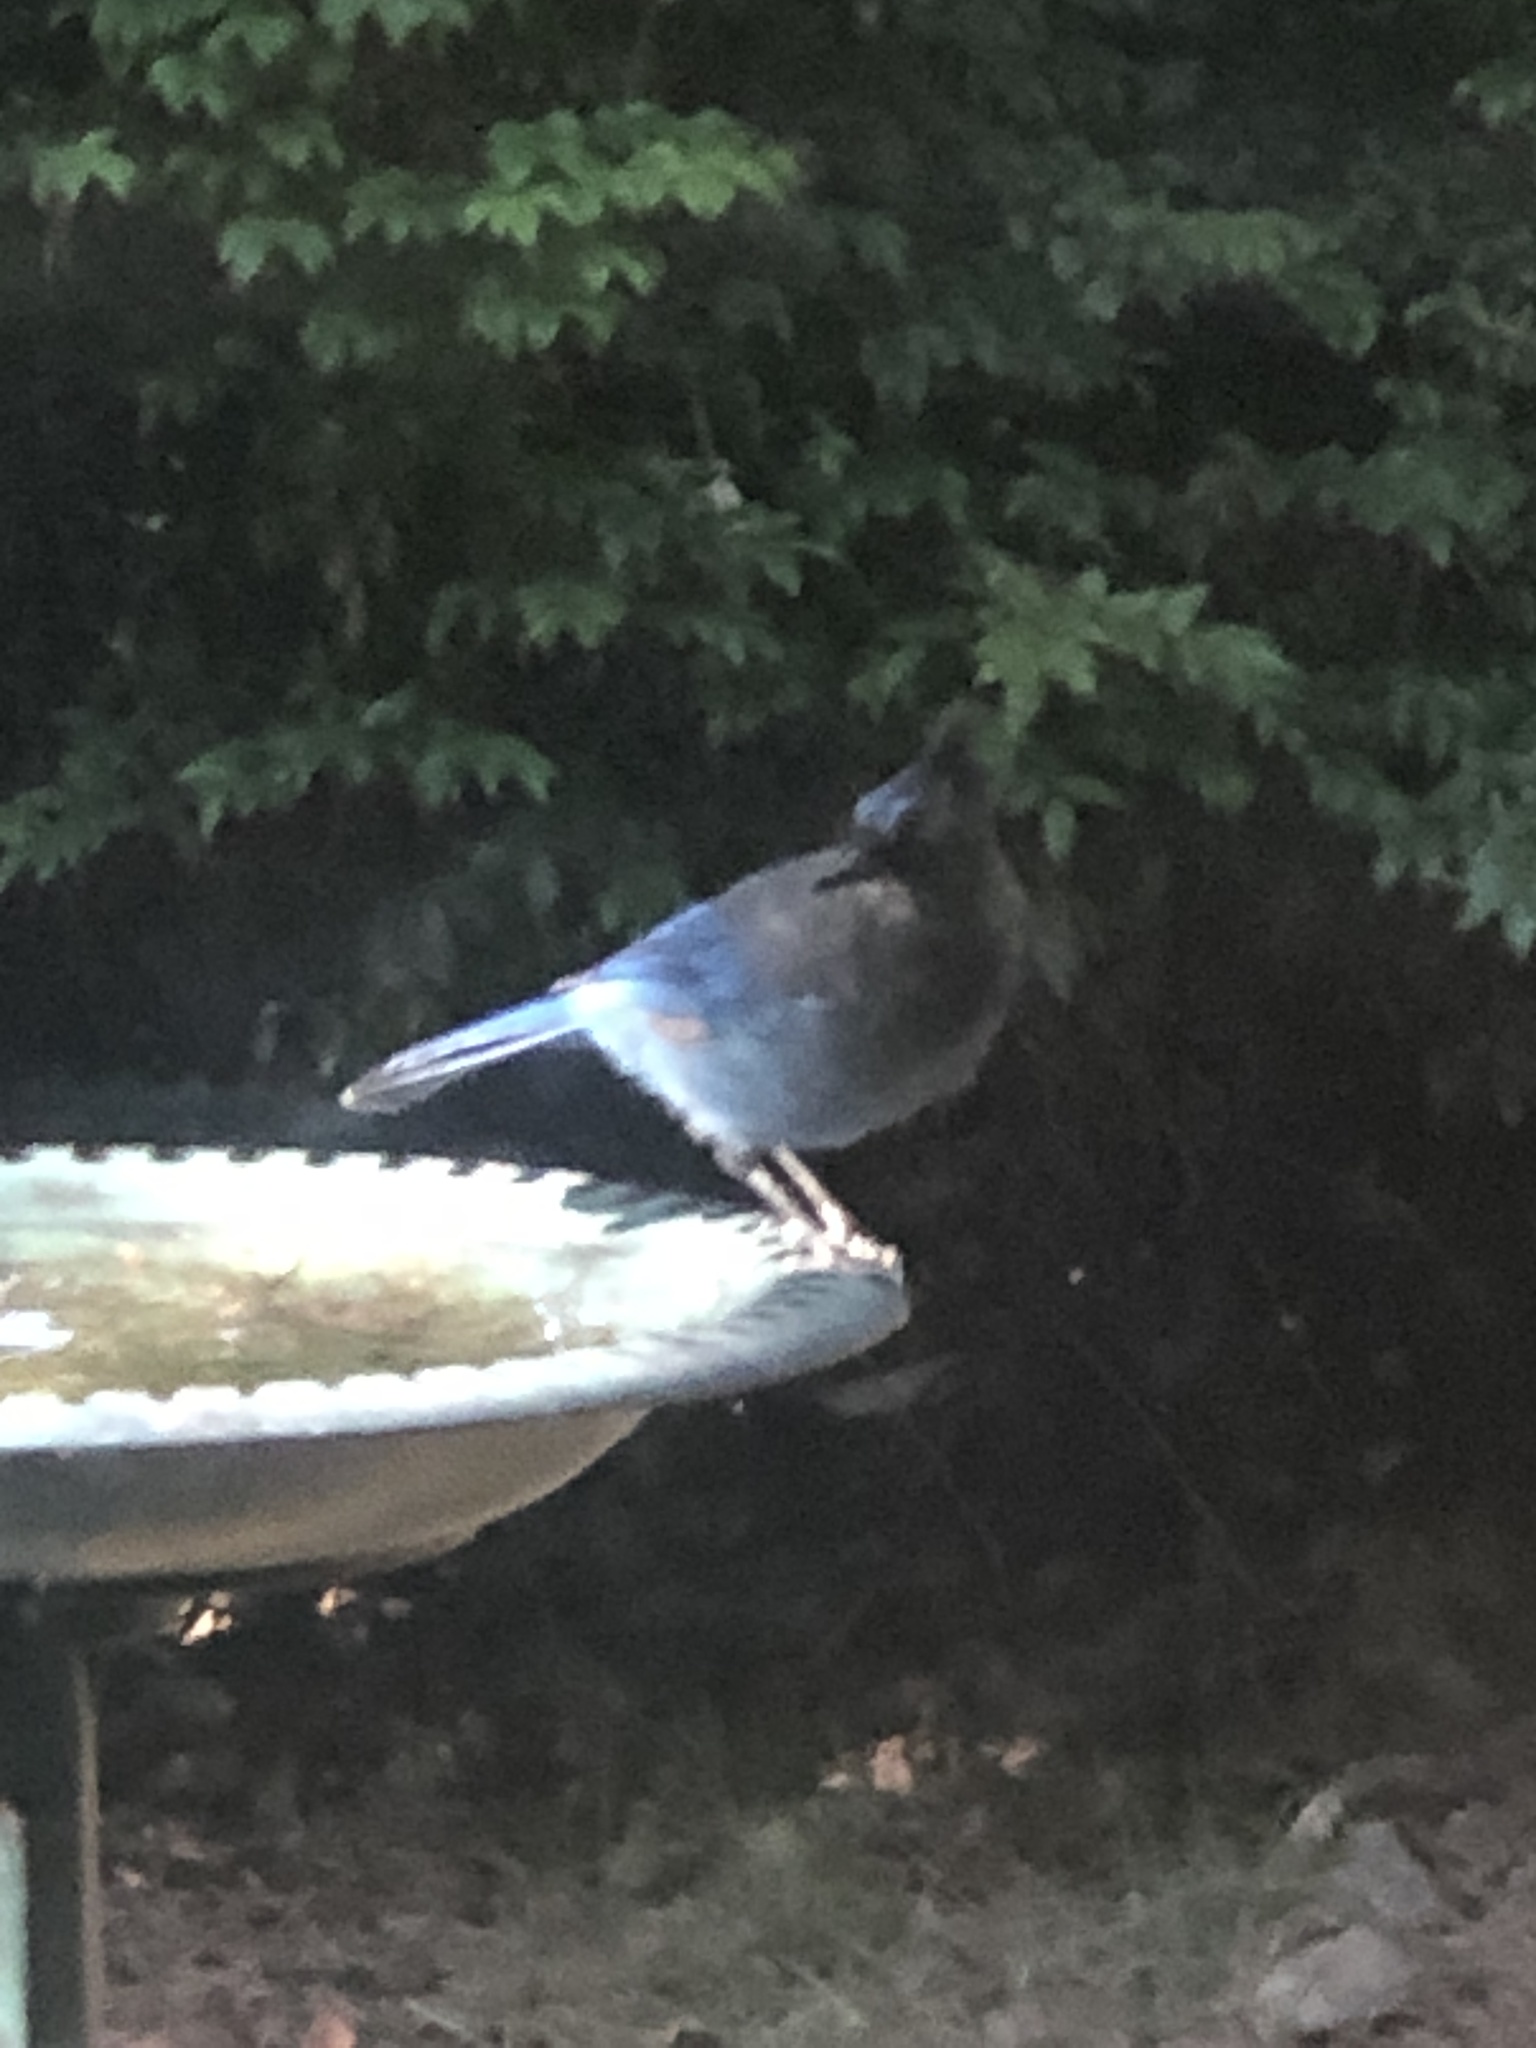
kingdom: Animalia
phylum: Chordata
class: Aves
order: Passeriformes
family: Corvidae
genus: Cyanocitta
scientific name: Cyanocitta stelleri
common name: Steller's jay
